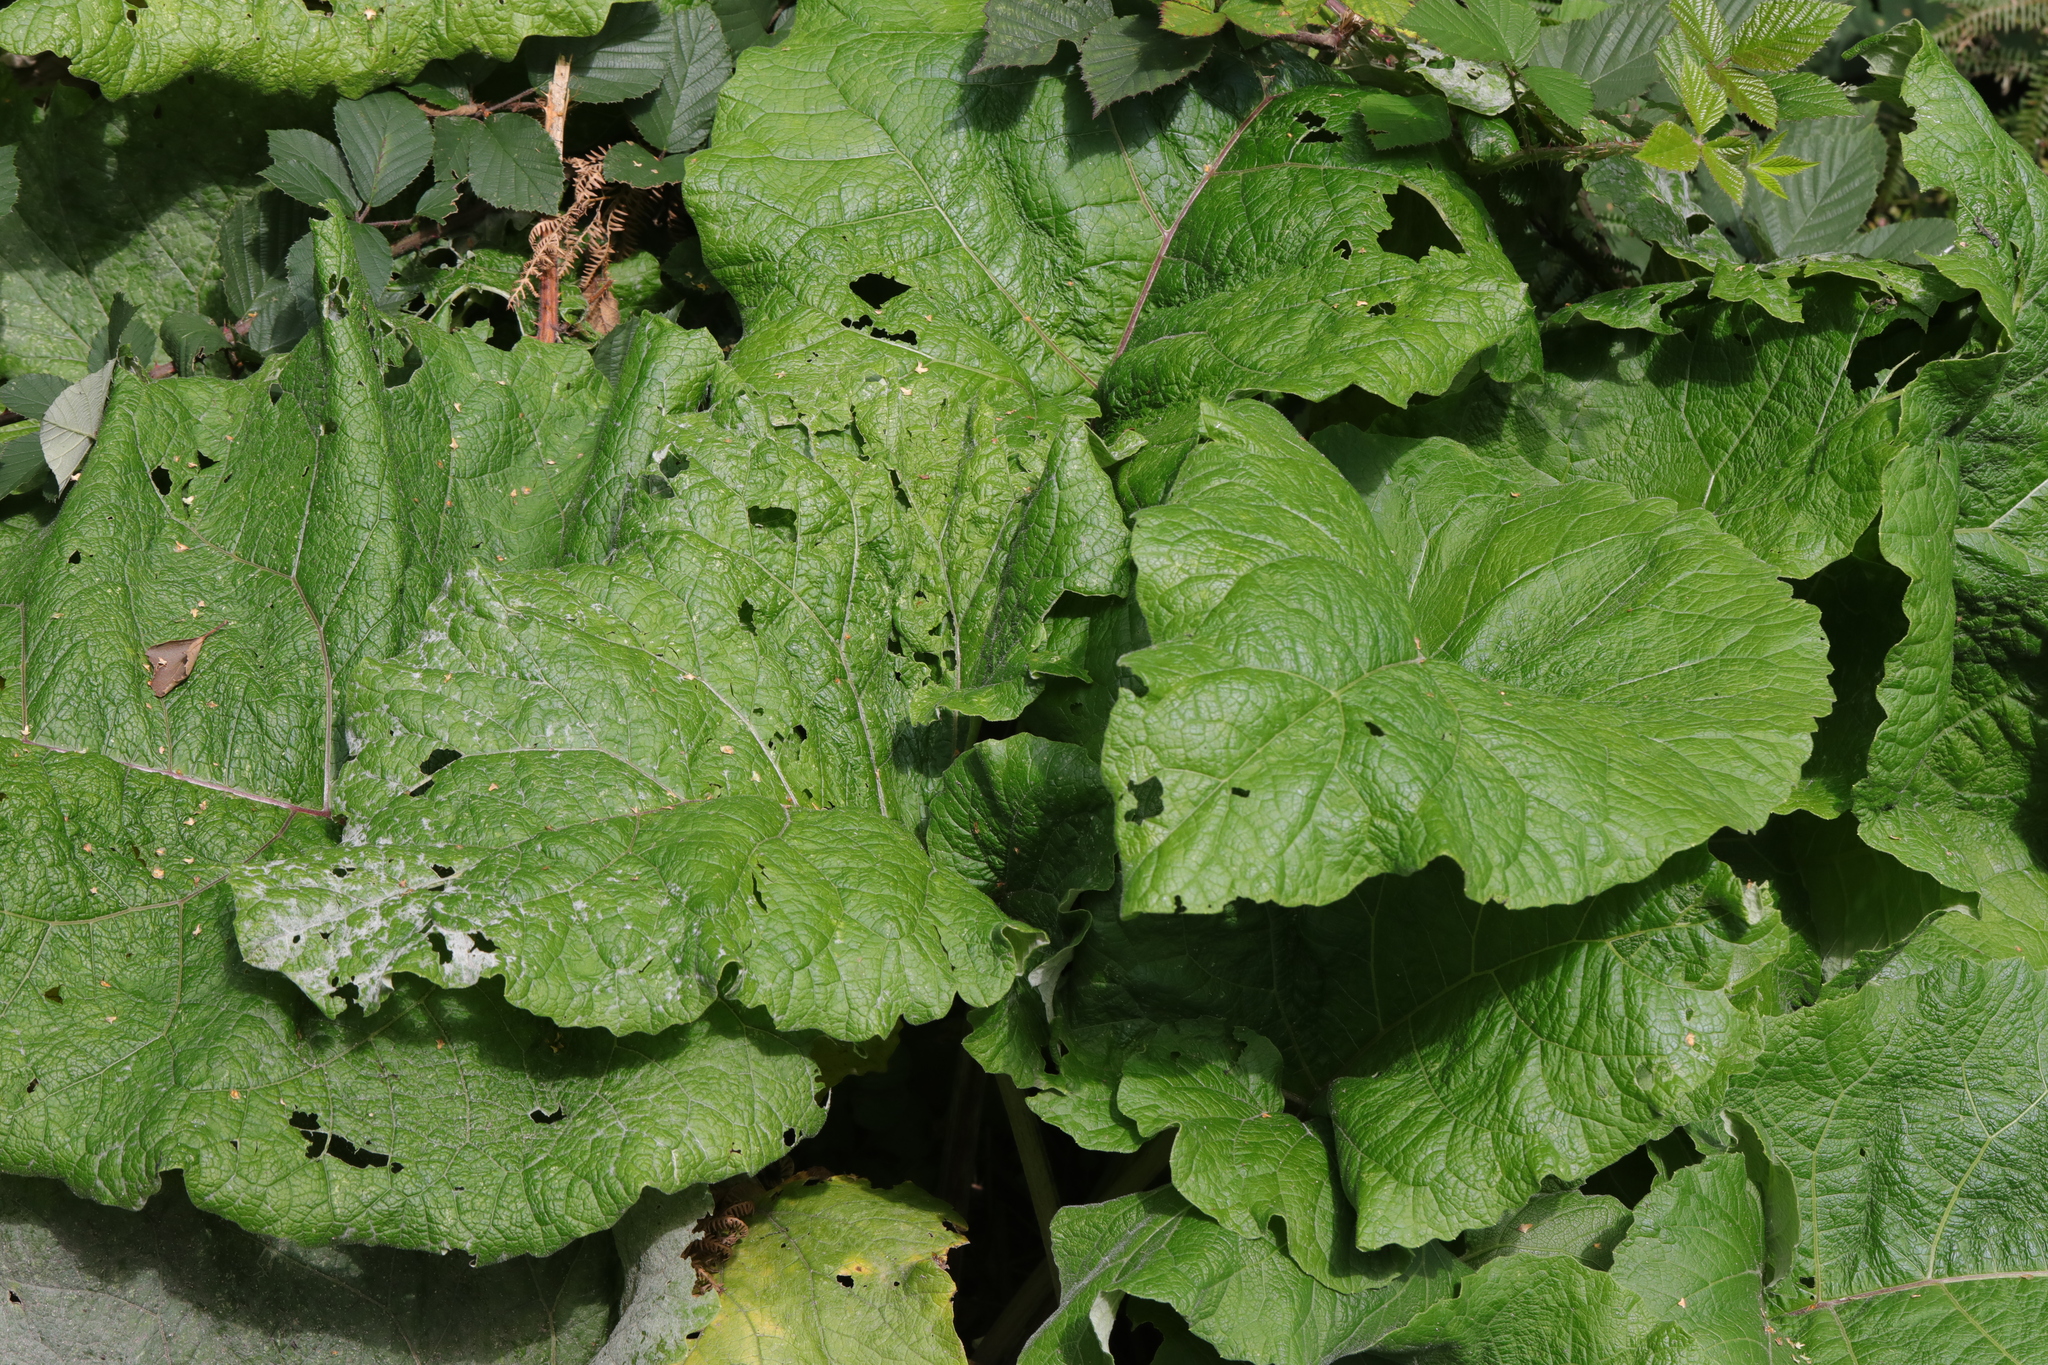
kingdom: Plantae
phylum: Tracheophyta
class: Magnoliopsida
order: Asterales
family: Asteraceae
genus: Arctium
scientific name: Arctium minus
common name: Lesser burdock
